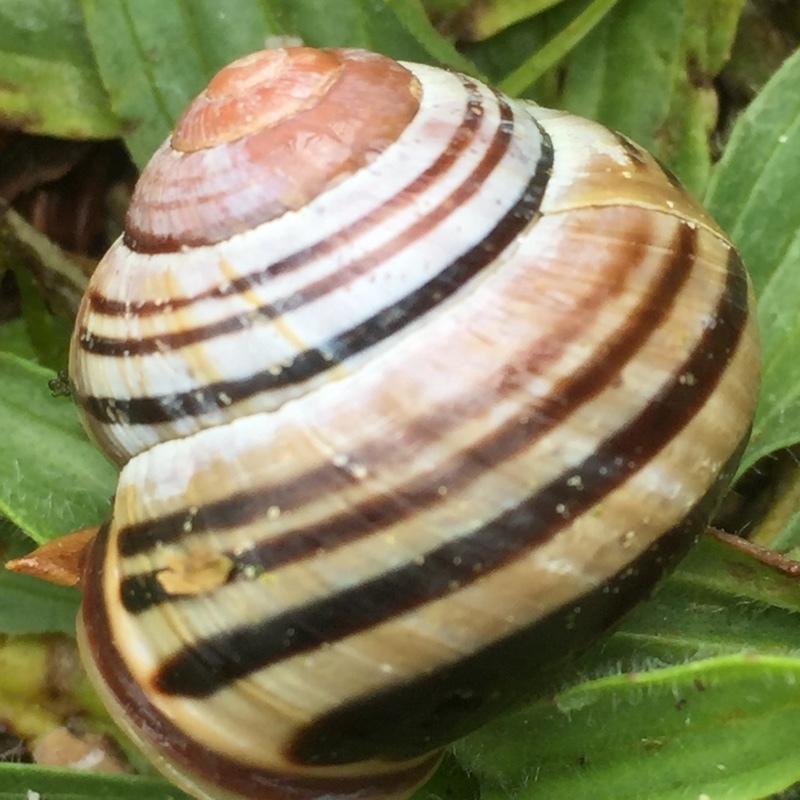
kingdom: Animalia
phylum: Mollusca
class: Gastropoda
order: Stylommatophora
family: Helicidae
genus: Cepaea
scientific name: Cepaea nemoralis
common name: Grovesnail
